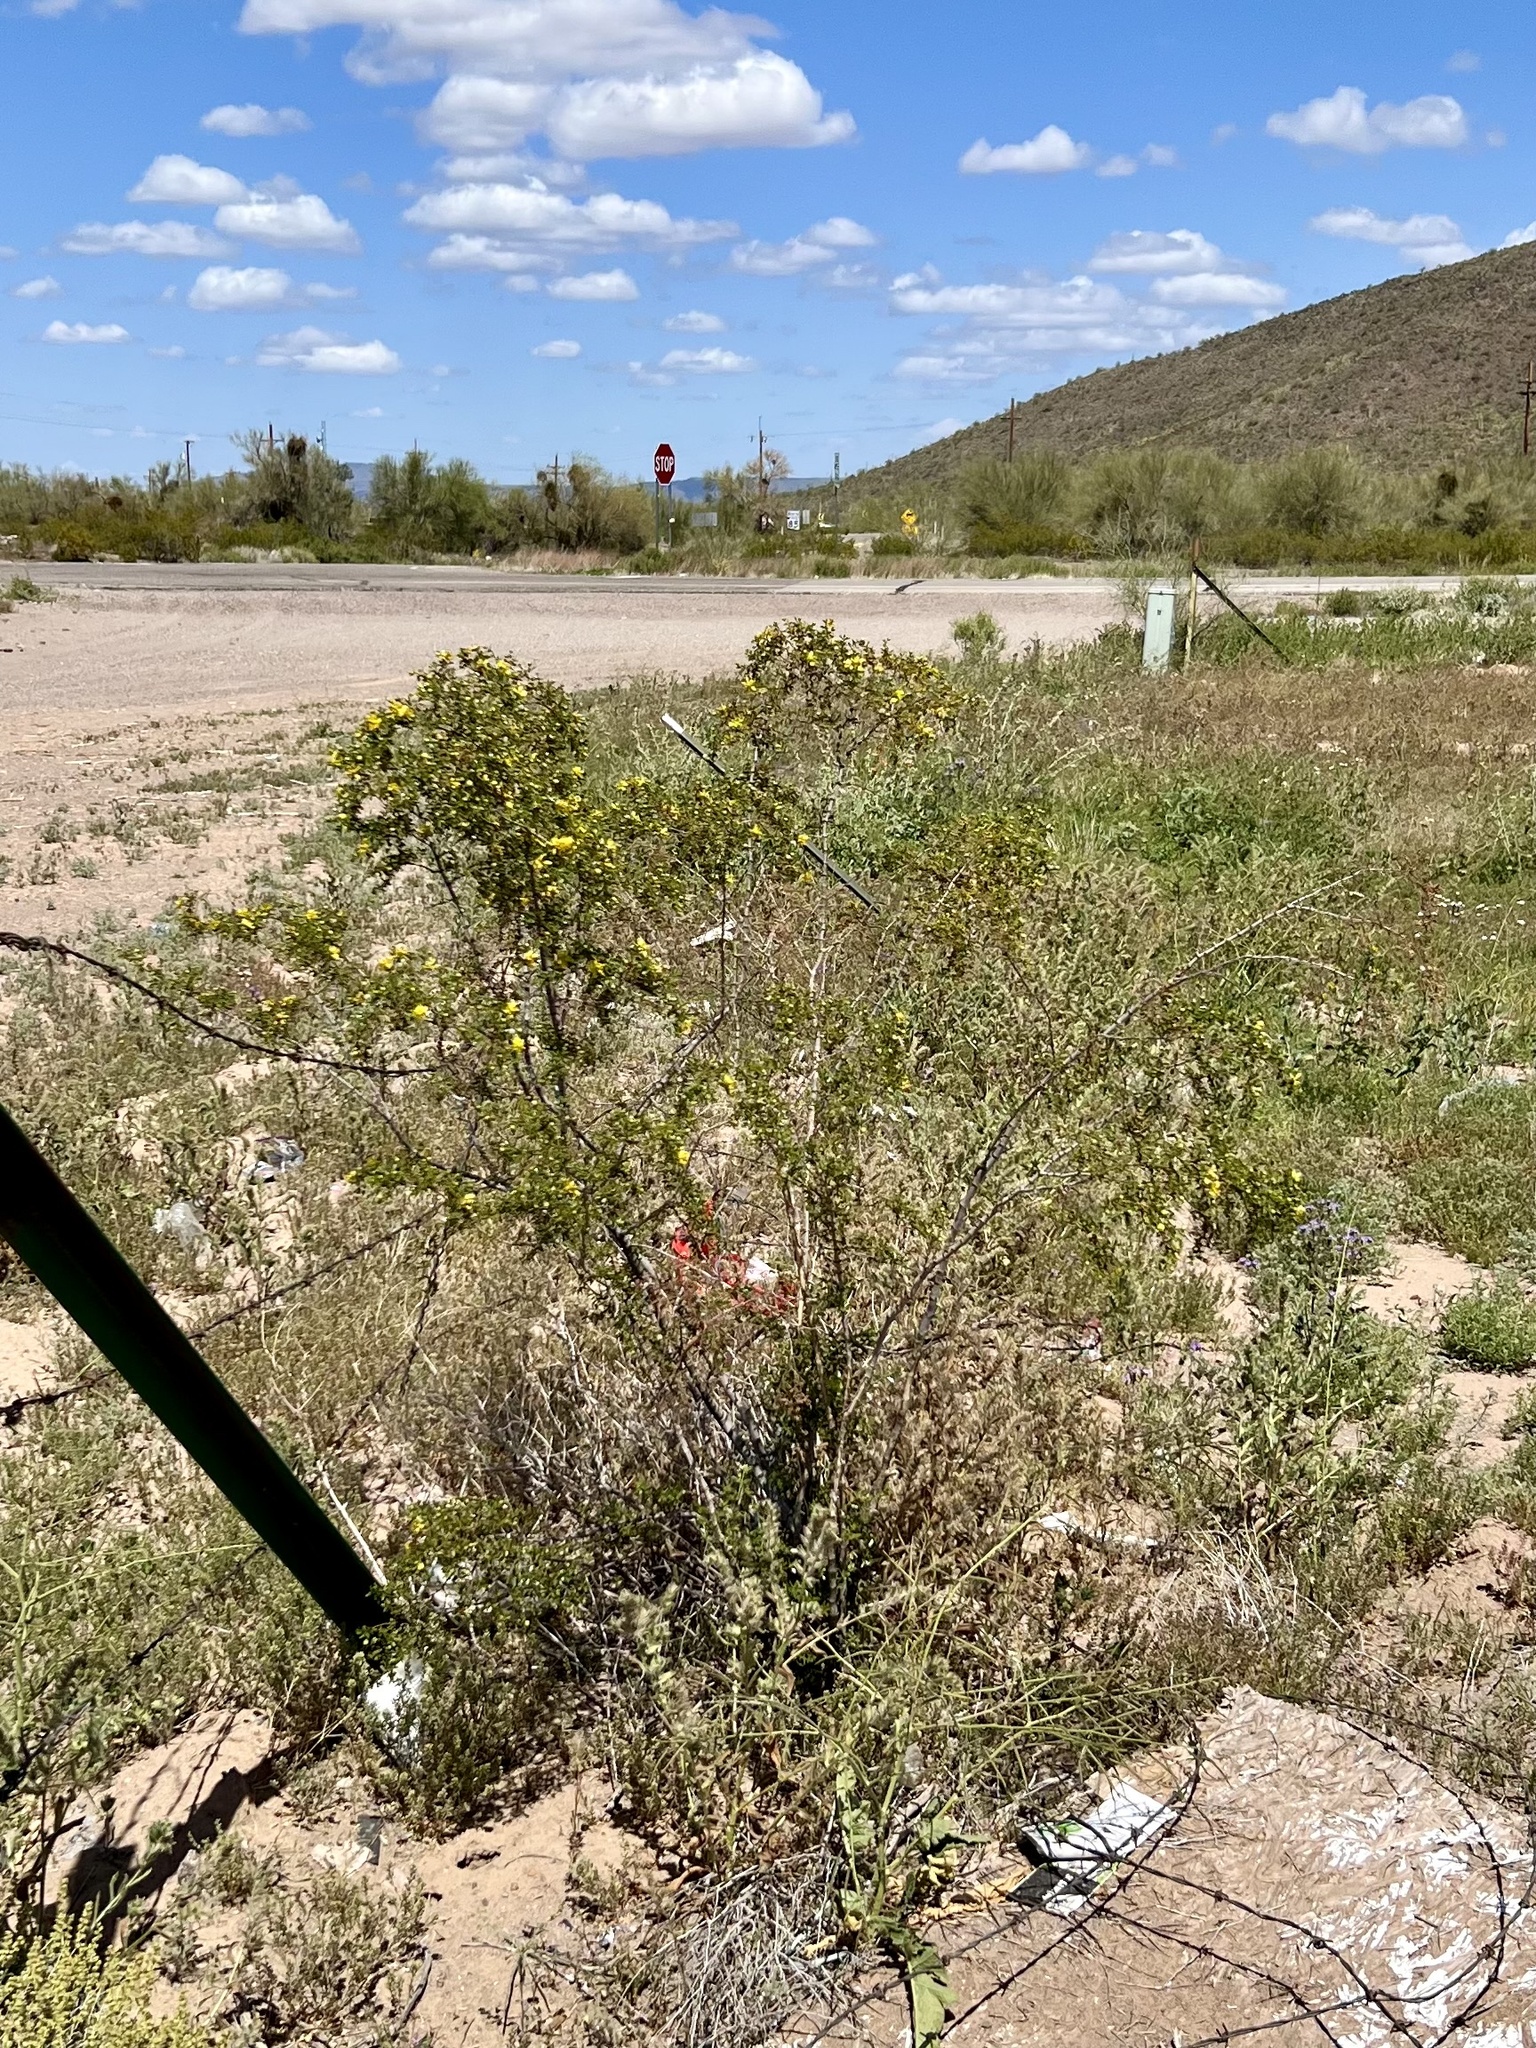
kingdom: Plantae
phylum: Tracheophyta
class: Magnoliopsida
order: Zygophyllales
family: Zygophyllaceae
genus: Larrea
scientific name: Larrea tridentata
